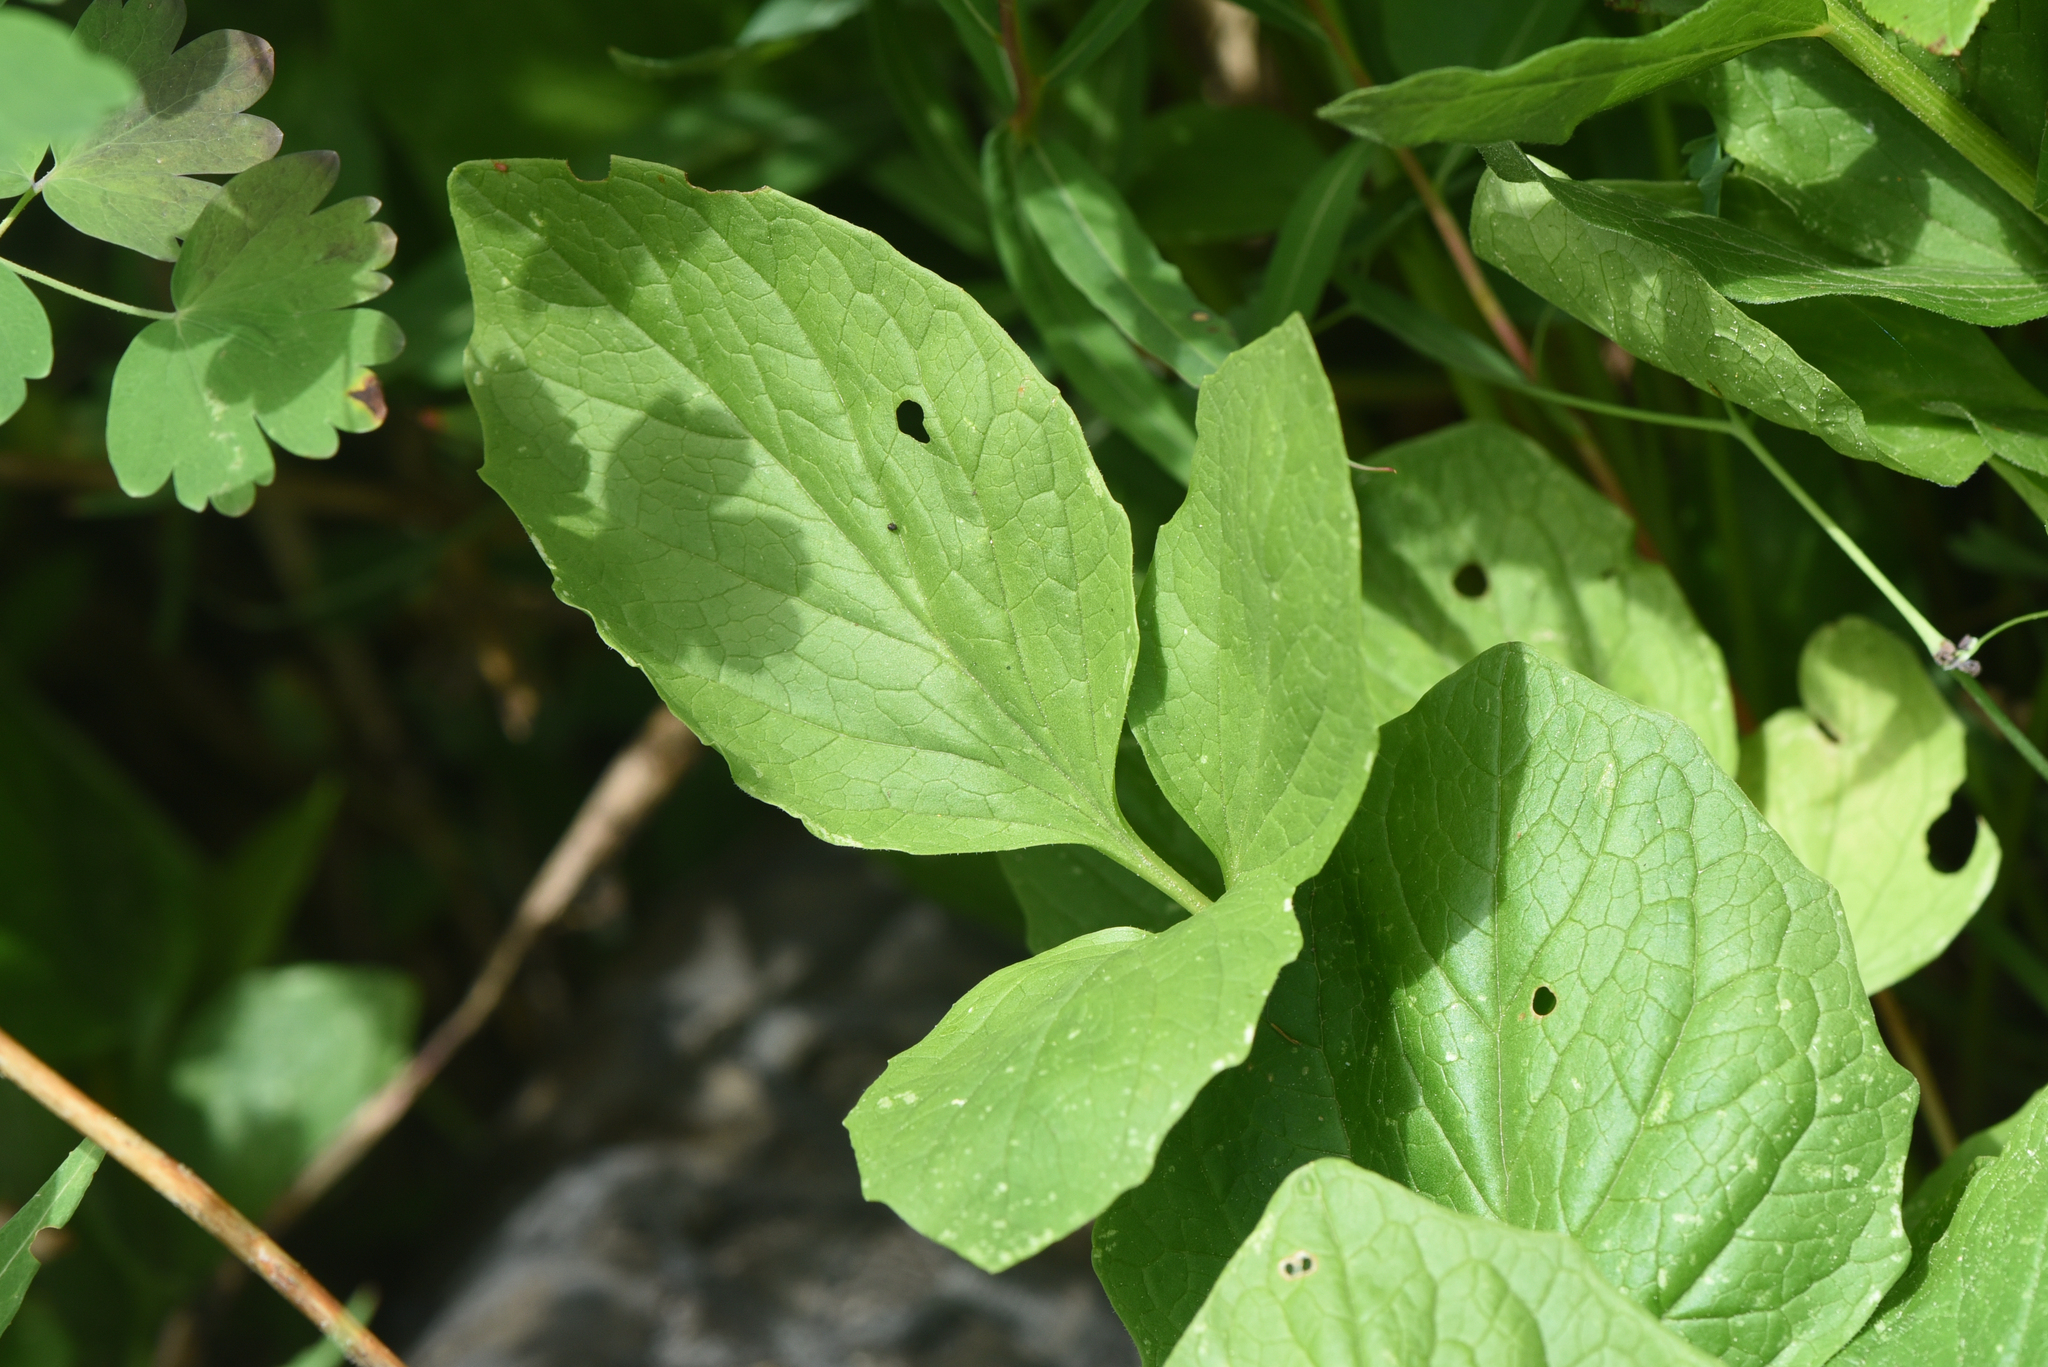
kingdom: Plantae
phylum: Tracheophyta
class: Magnoliopsida
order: Dipsacales
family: Caprifoliaceae
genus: Valeriana
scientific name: Valeriana sitchensis
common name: Pacific valerian
